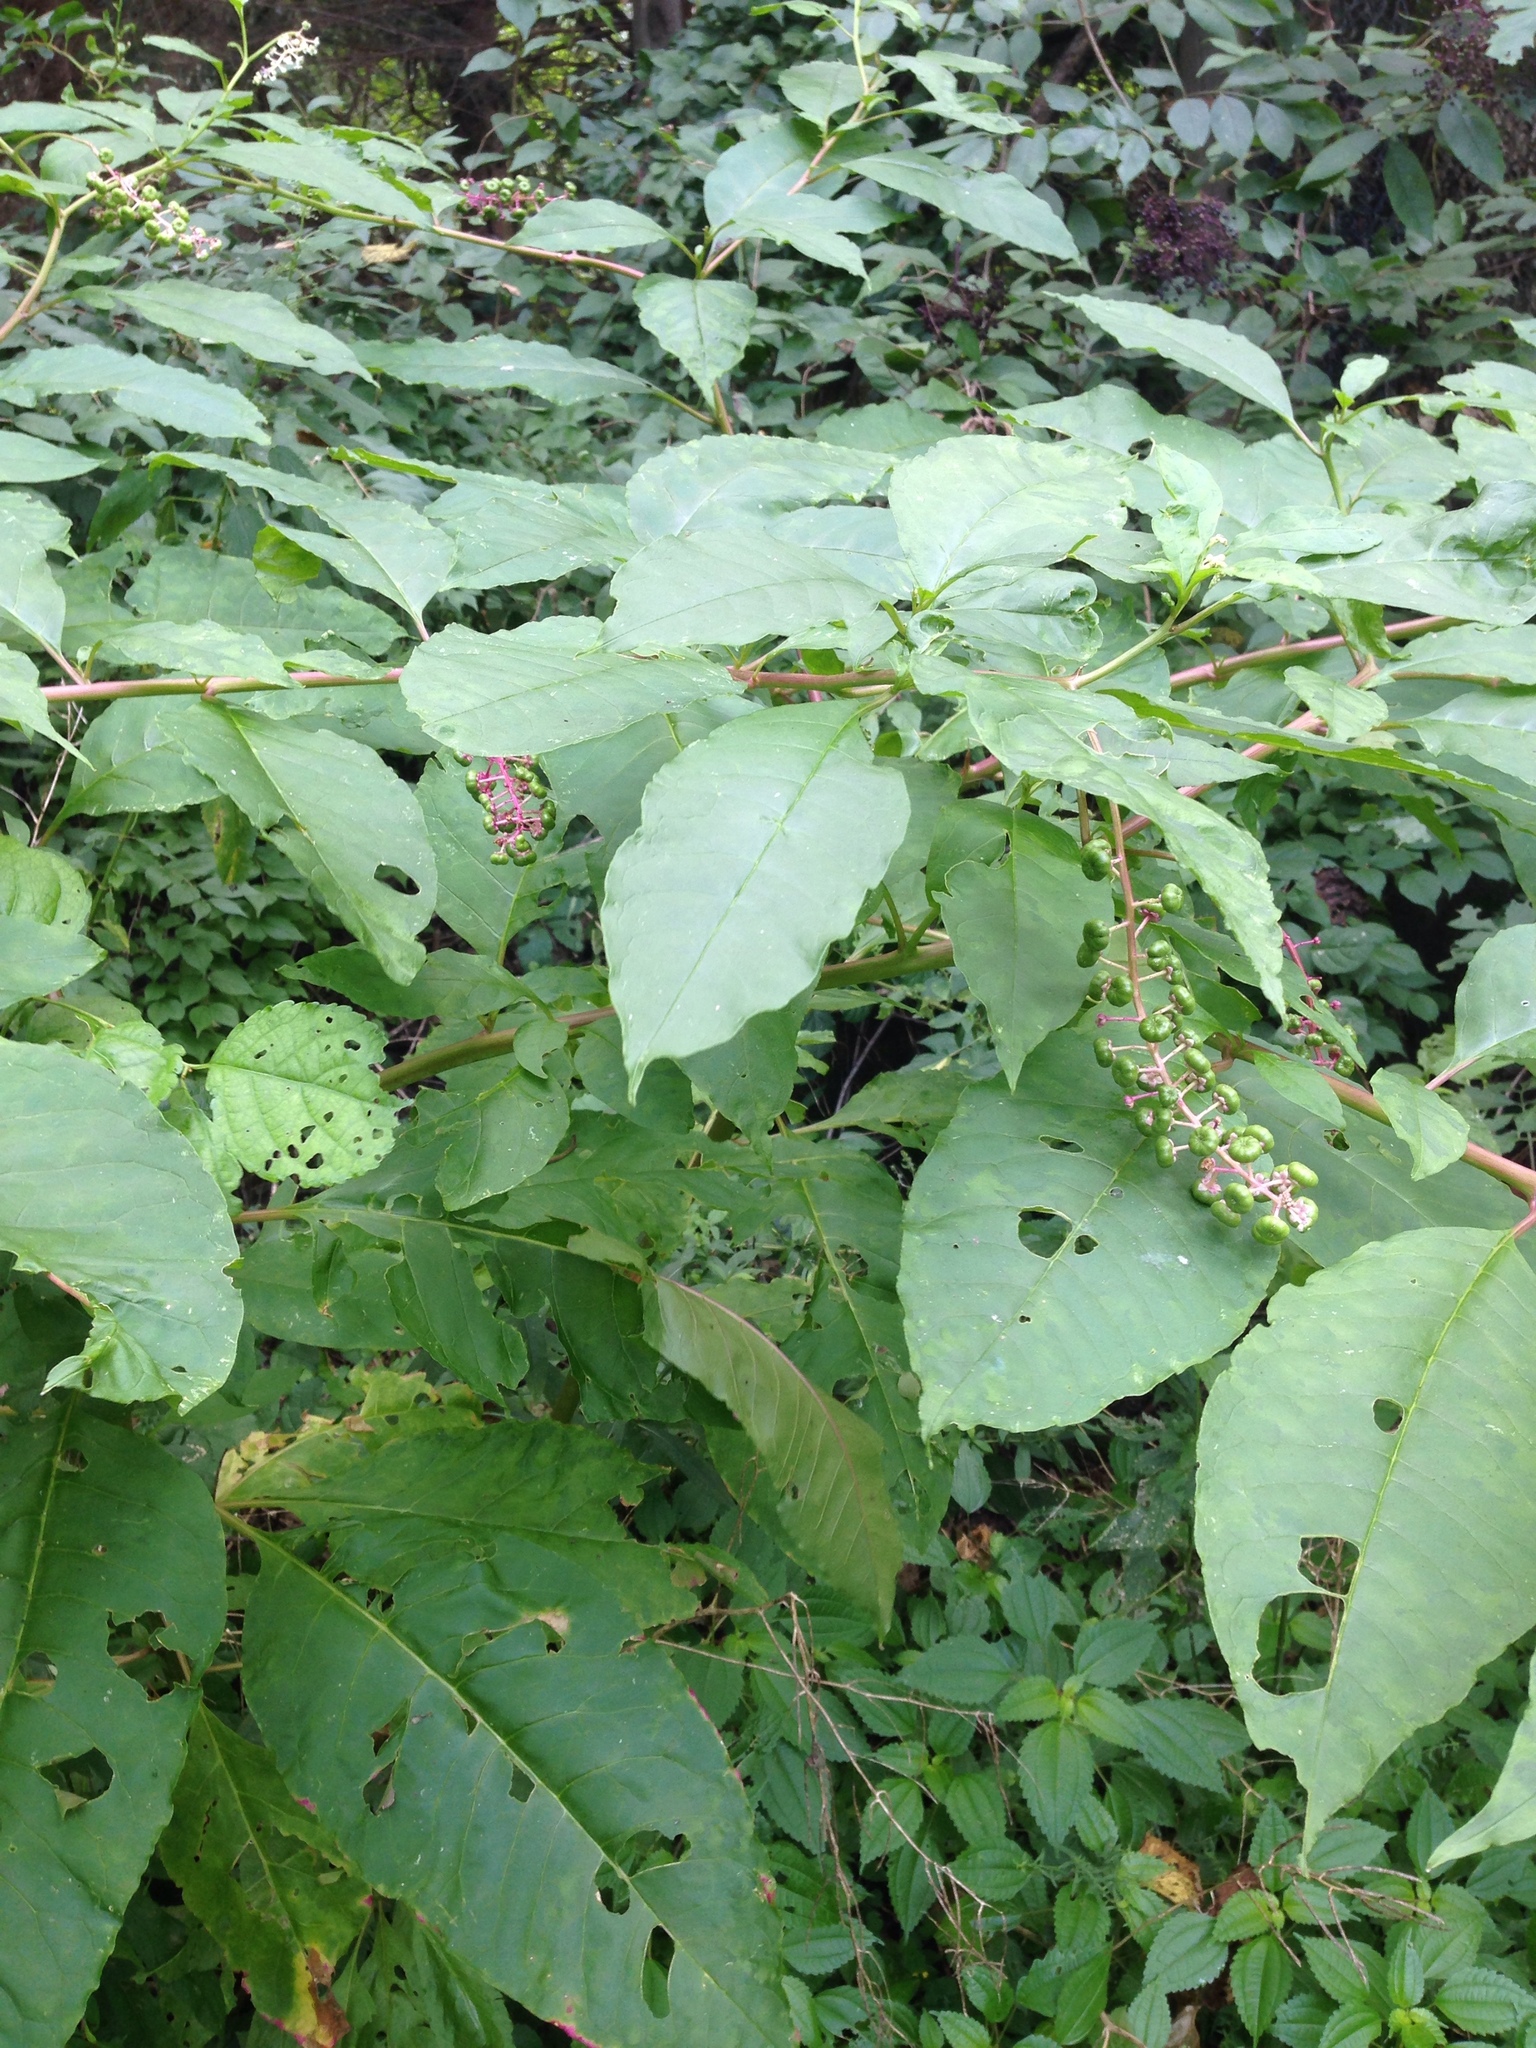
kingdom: Plantae
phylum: Tracheophyta
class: Magnoliopsida
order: Caryophyllales
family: Phytolaccaceae
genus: Phytolacca
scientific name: Phytolacca americana
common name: American pokeweed
